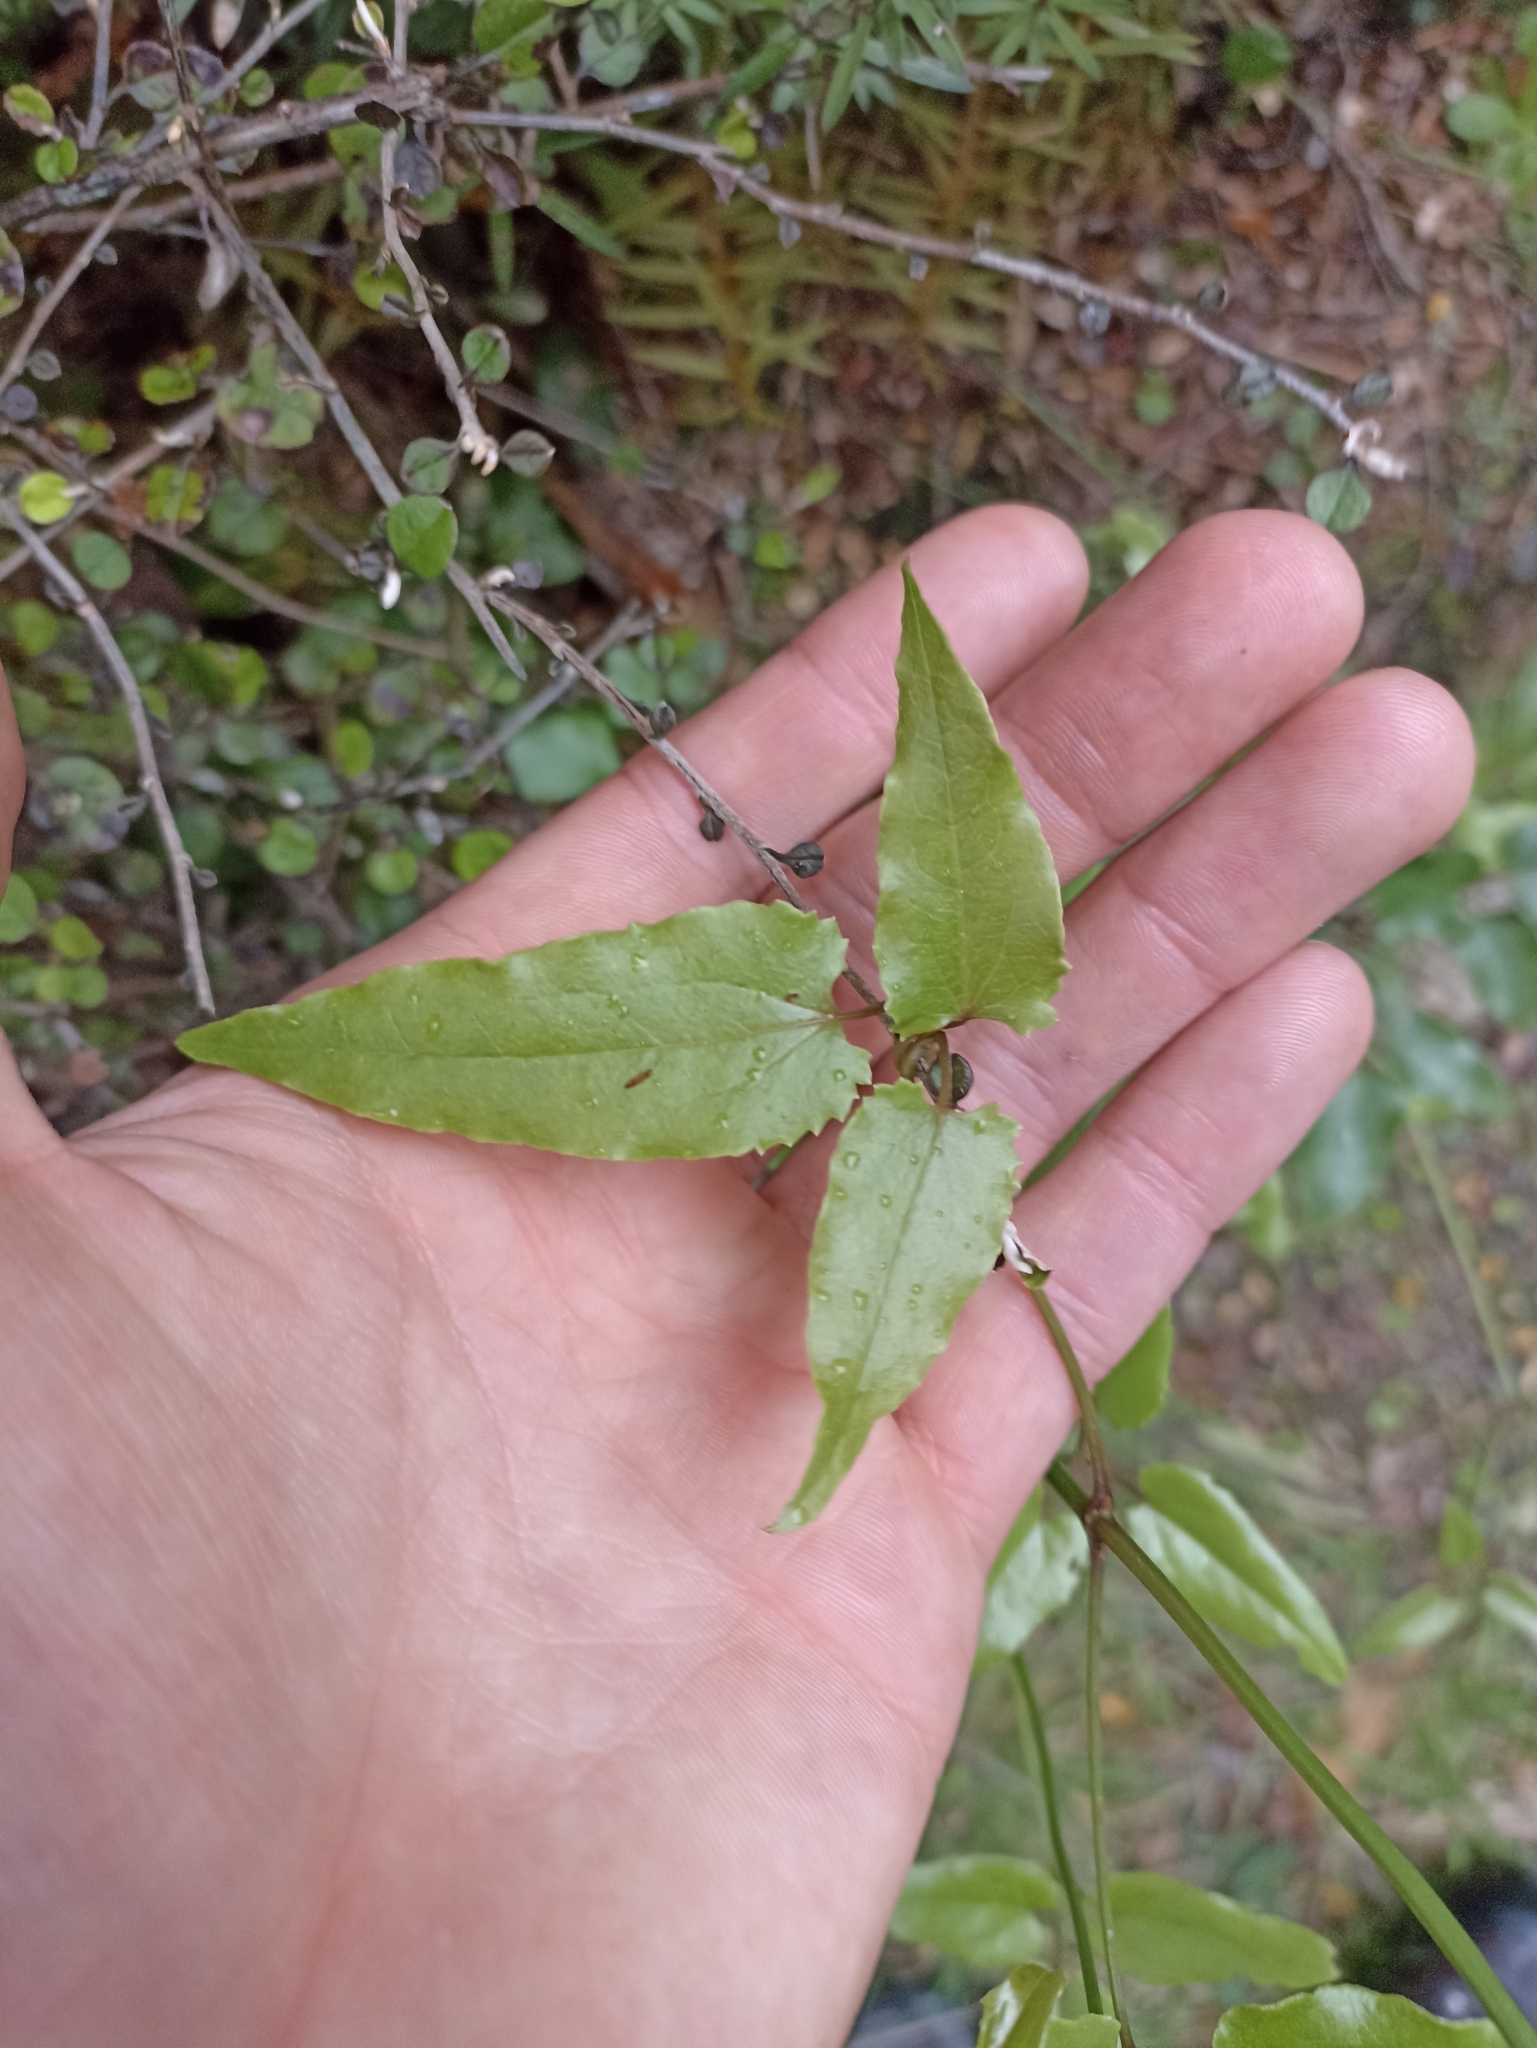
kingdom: Plantae
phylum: Tracheophyta
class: Magnoliopsida
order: Ranunculales
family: Ranunculaceae
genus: Clematis
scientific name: Clematis paniculata
